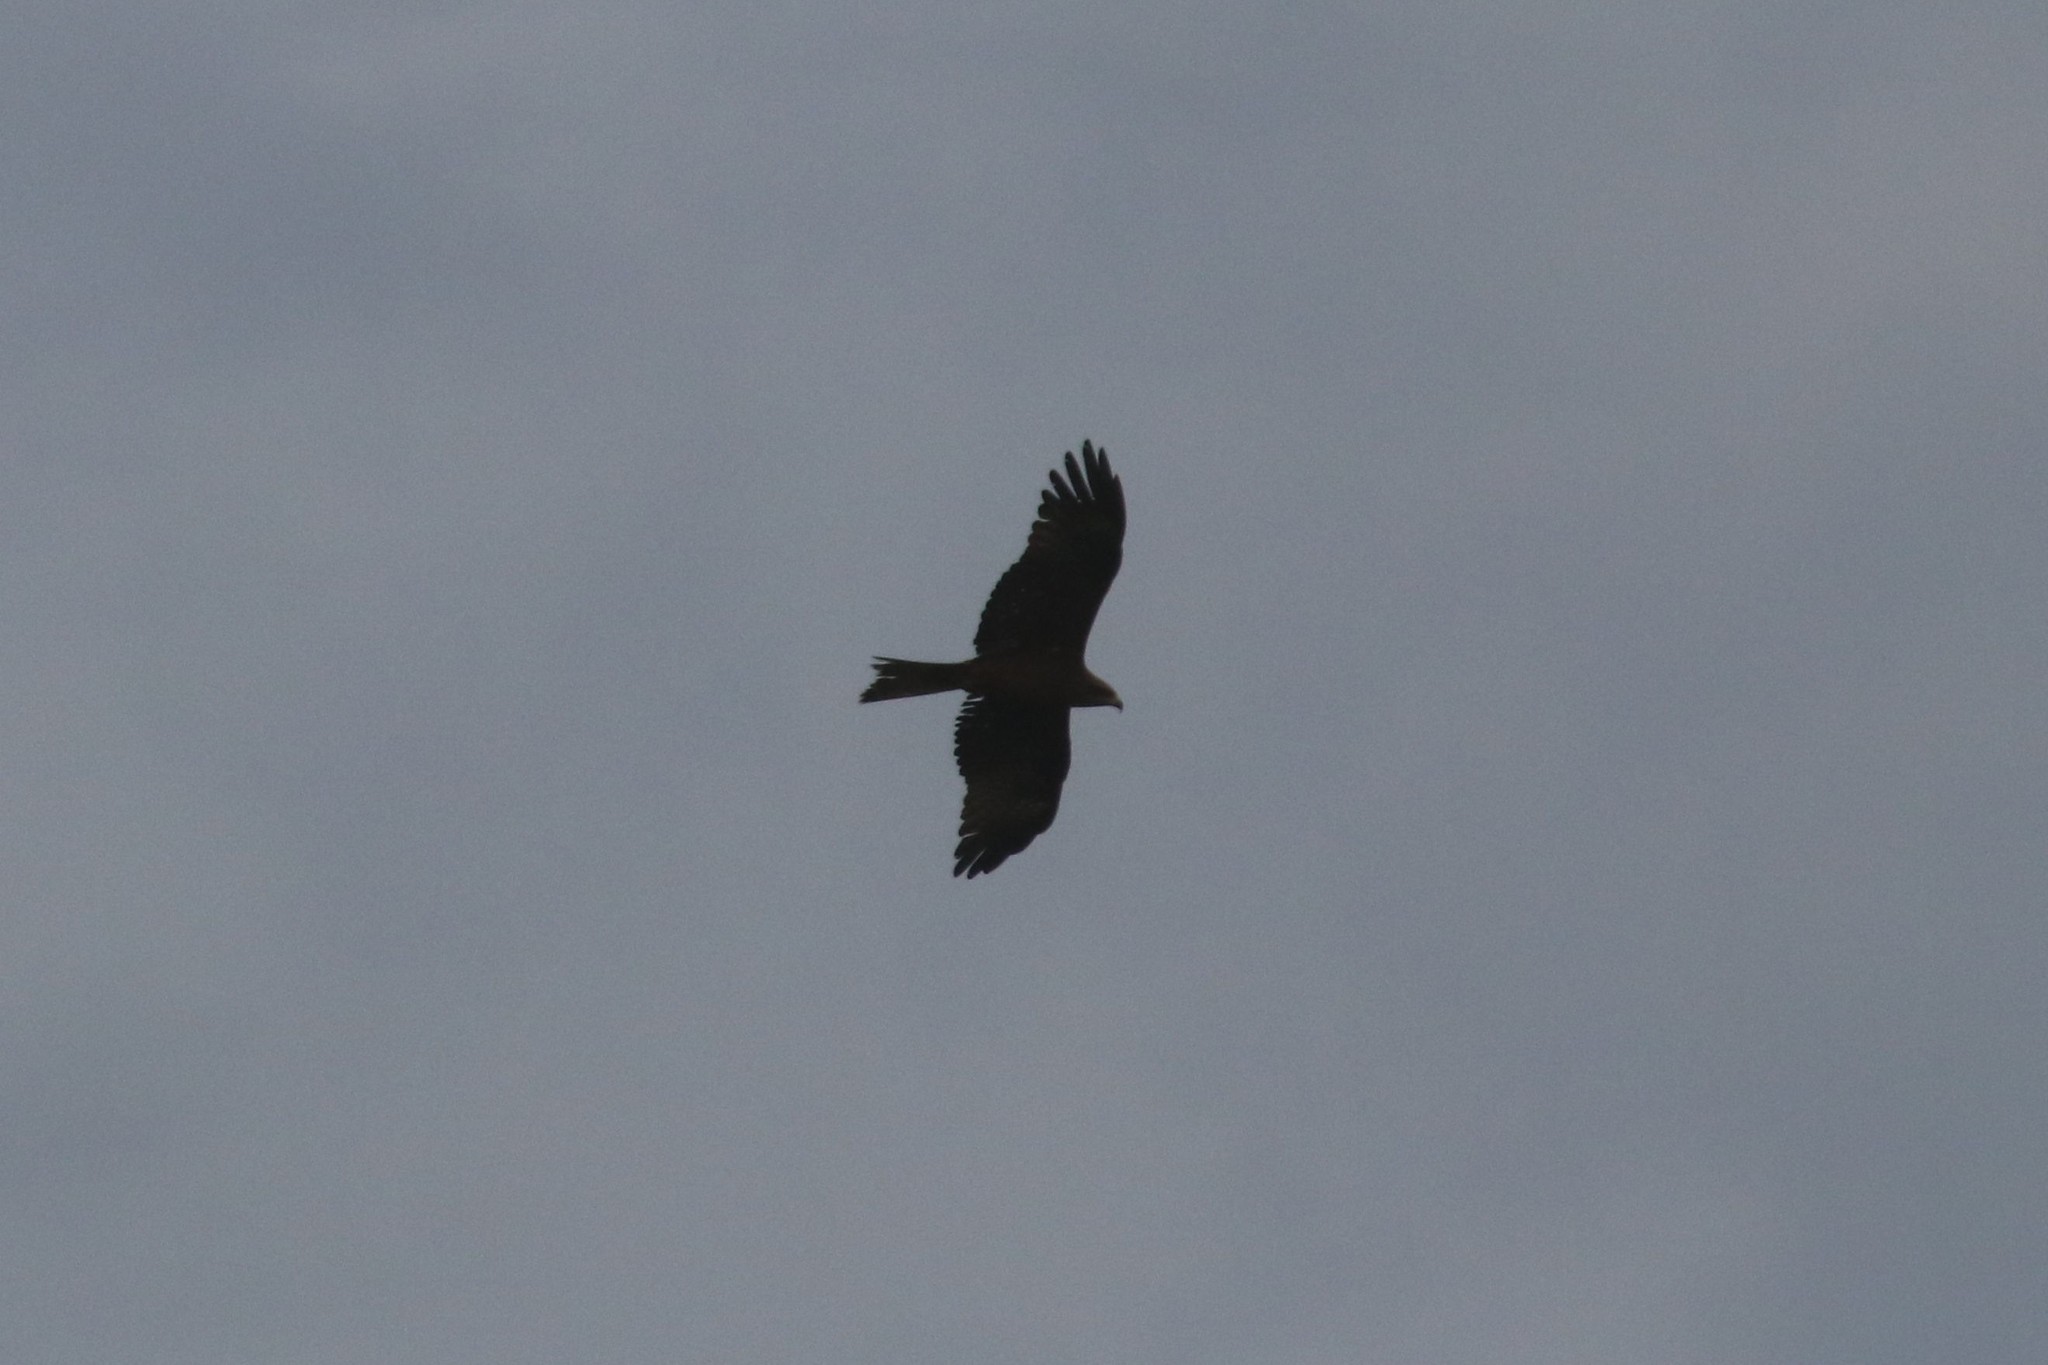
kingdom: Animalia
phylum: Chordata
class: Aves
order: Accipitriformes
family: Accipitridae
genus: Milvus
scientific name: Milvus migrans
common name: Black kite
